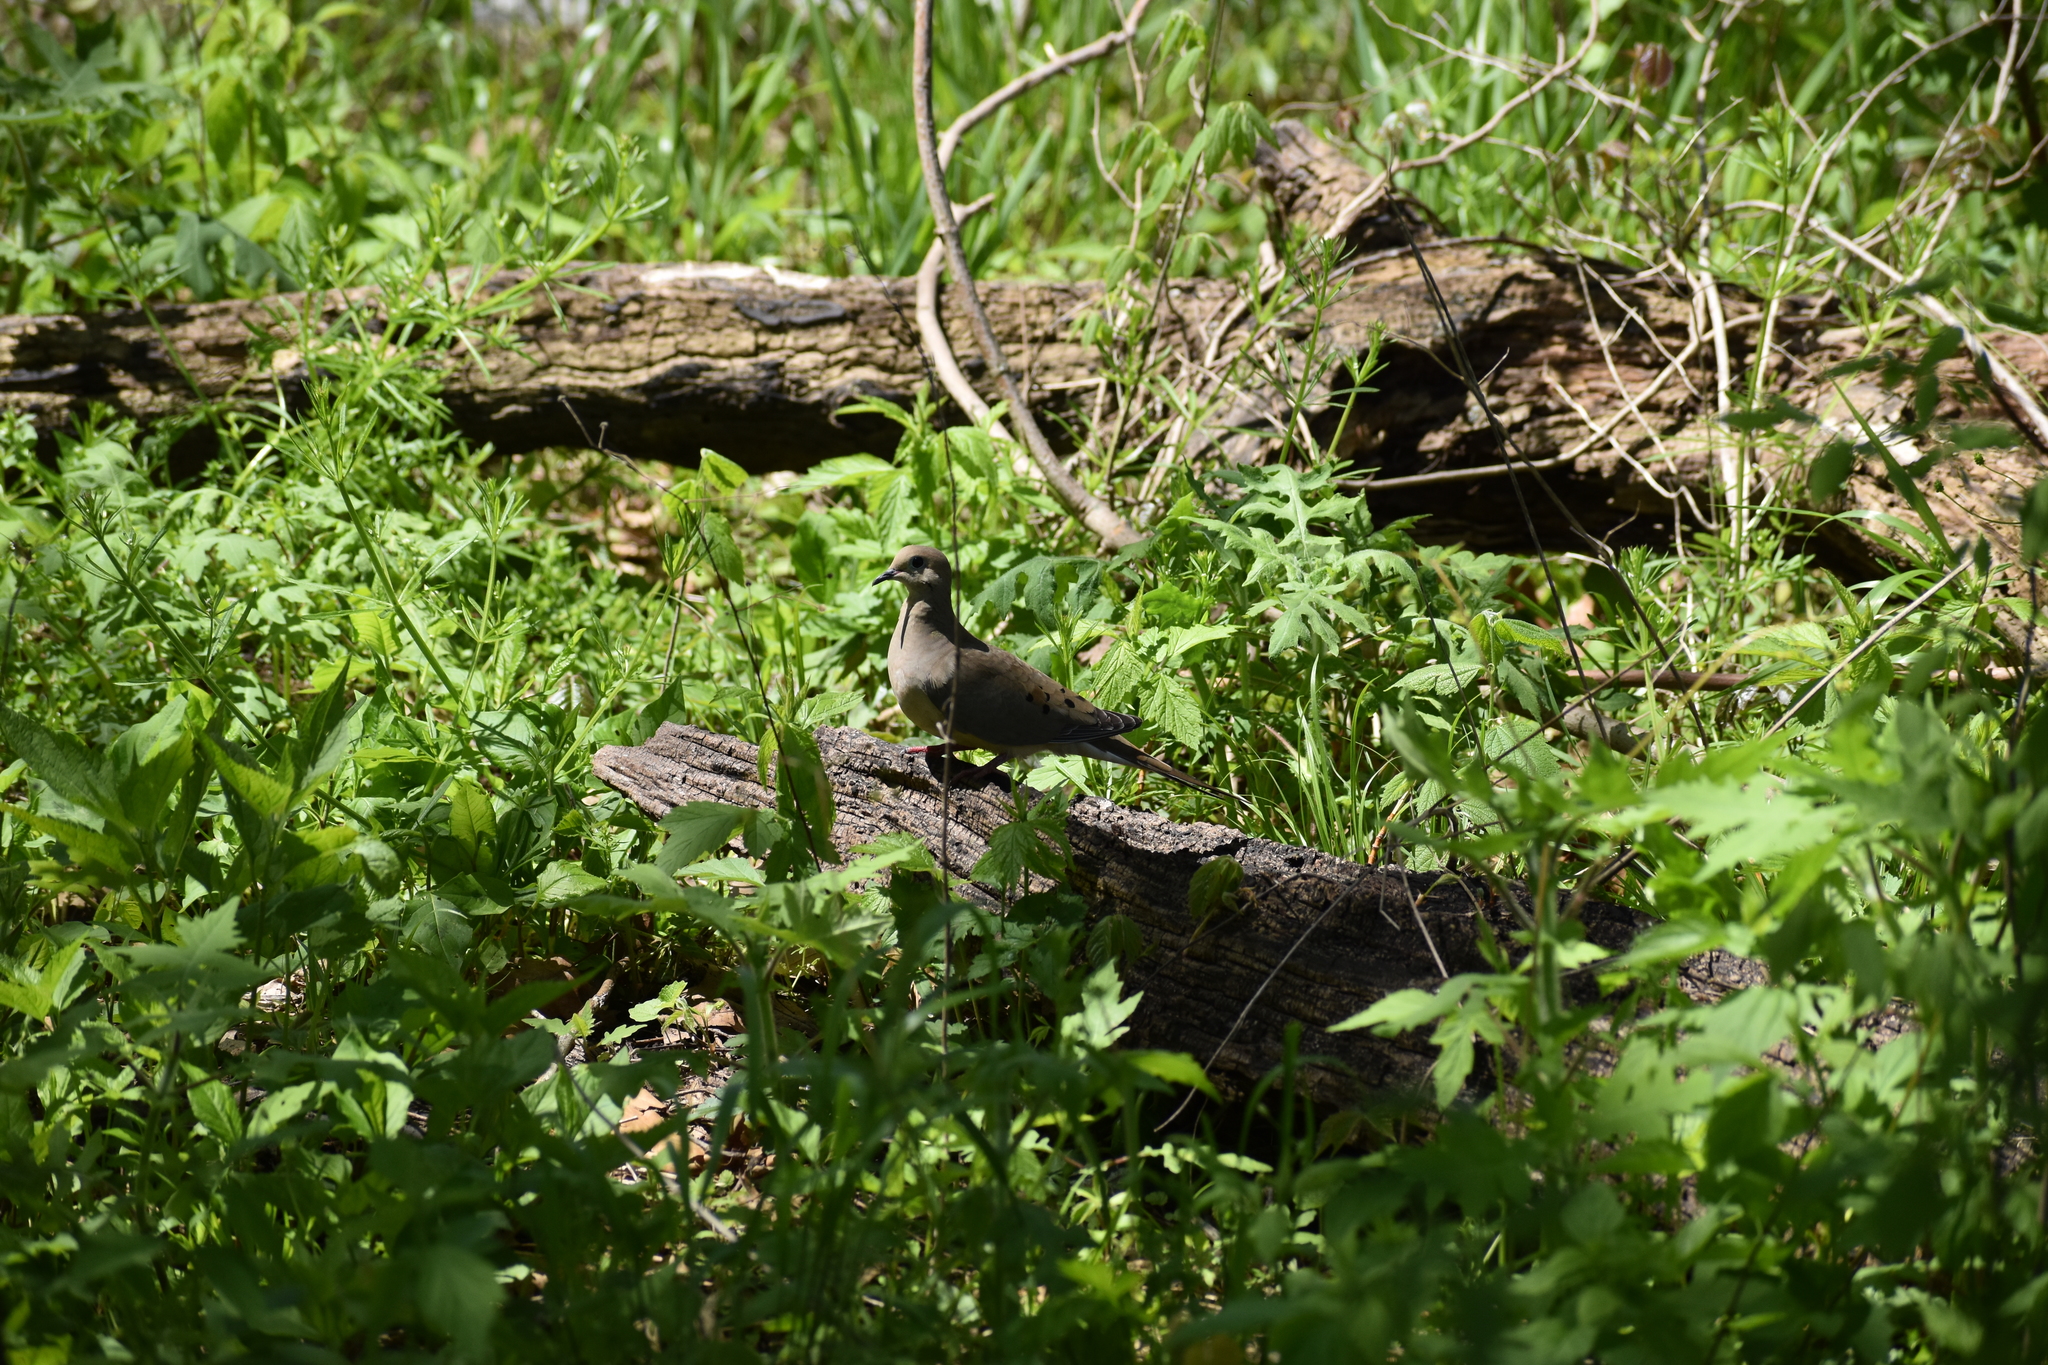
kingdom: Animalia
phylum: Chordata
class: Aves
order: Columbiformes
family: Columbidae
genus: Zenaida
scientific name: Zenaida macroura
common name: Mourning dove
